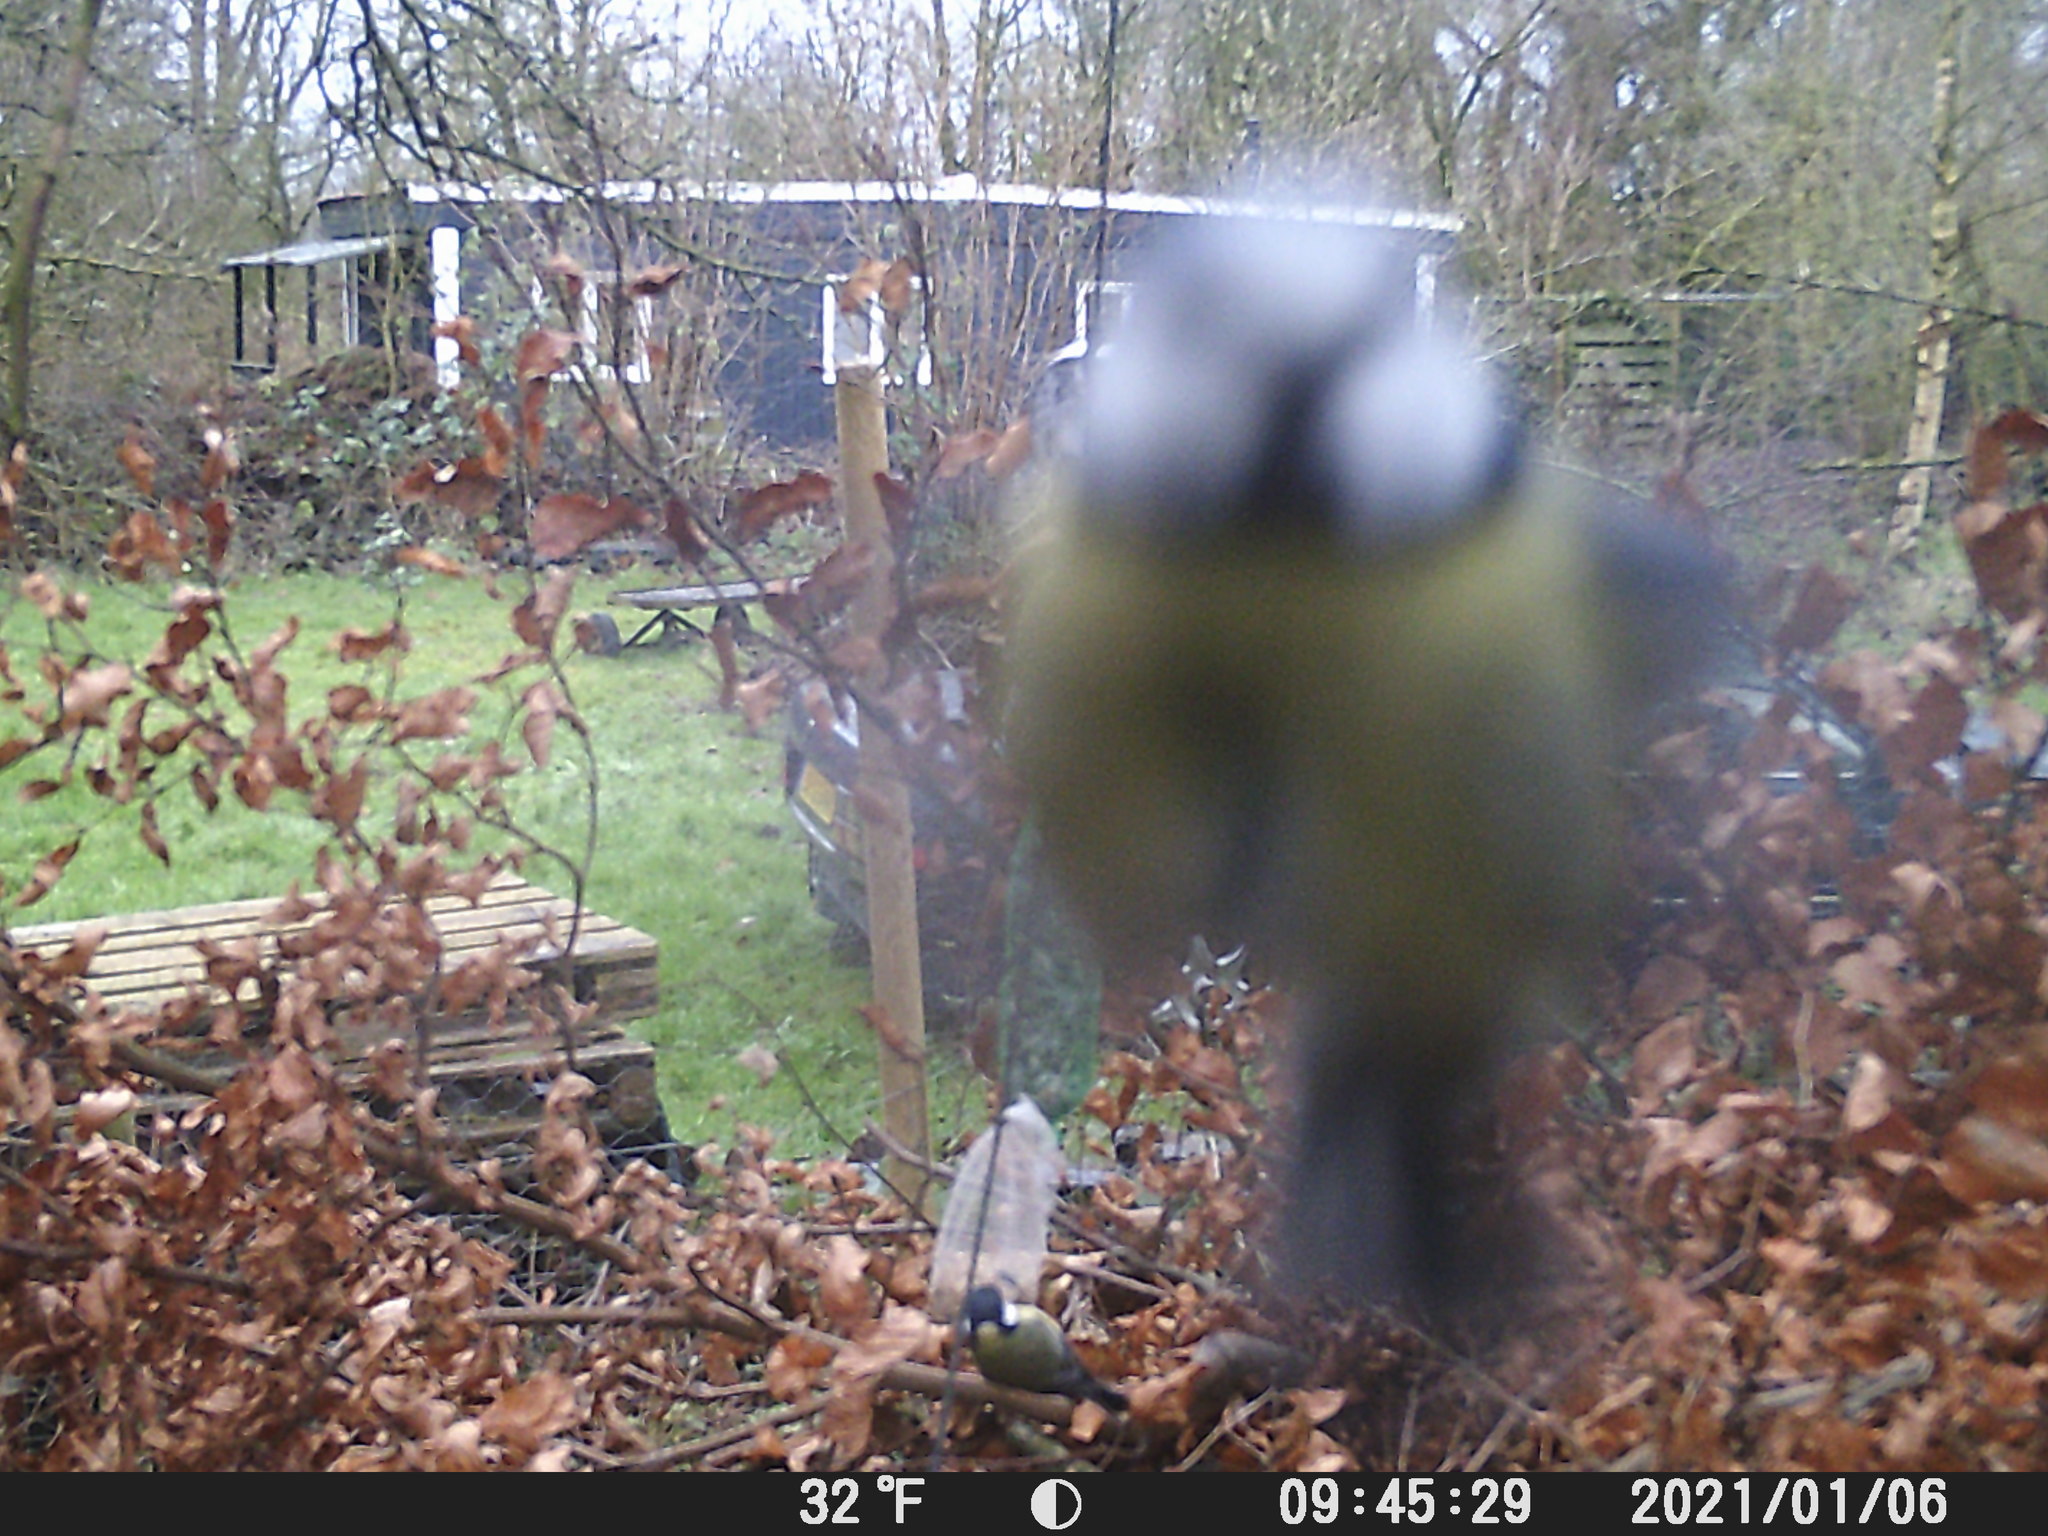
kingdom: Animalia
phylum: Chordata
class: Aves
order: Passeriformes
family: Paridae
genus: Cyanistes
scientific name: Cyanistes caeruleus
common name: Eurasian blue tit
